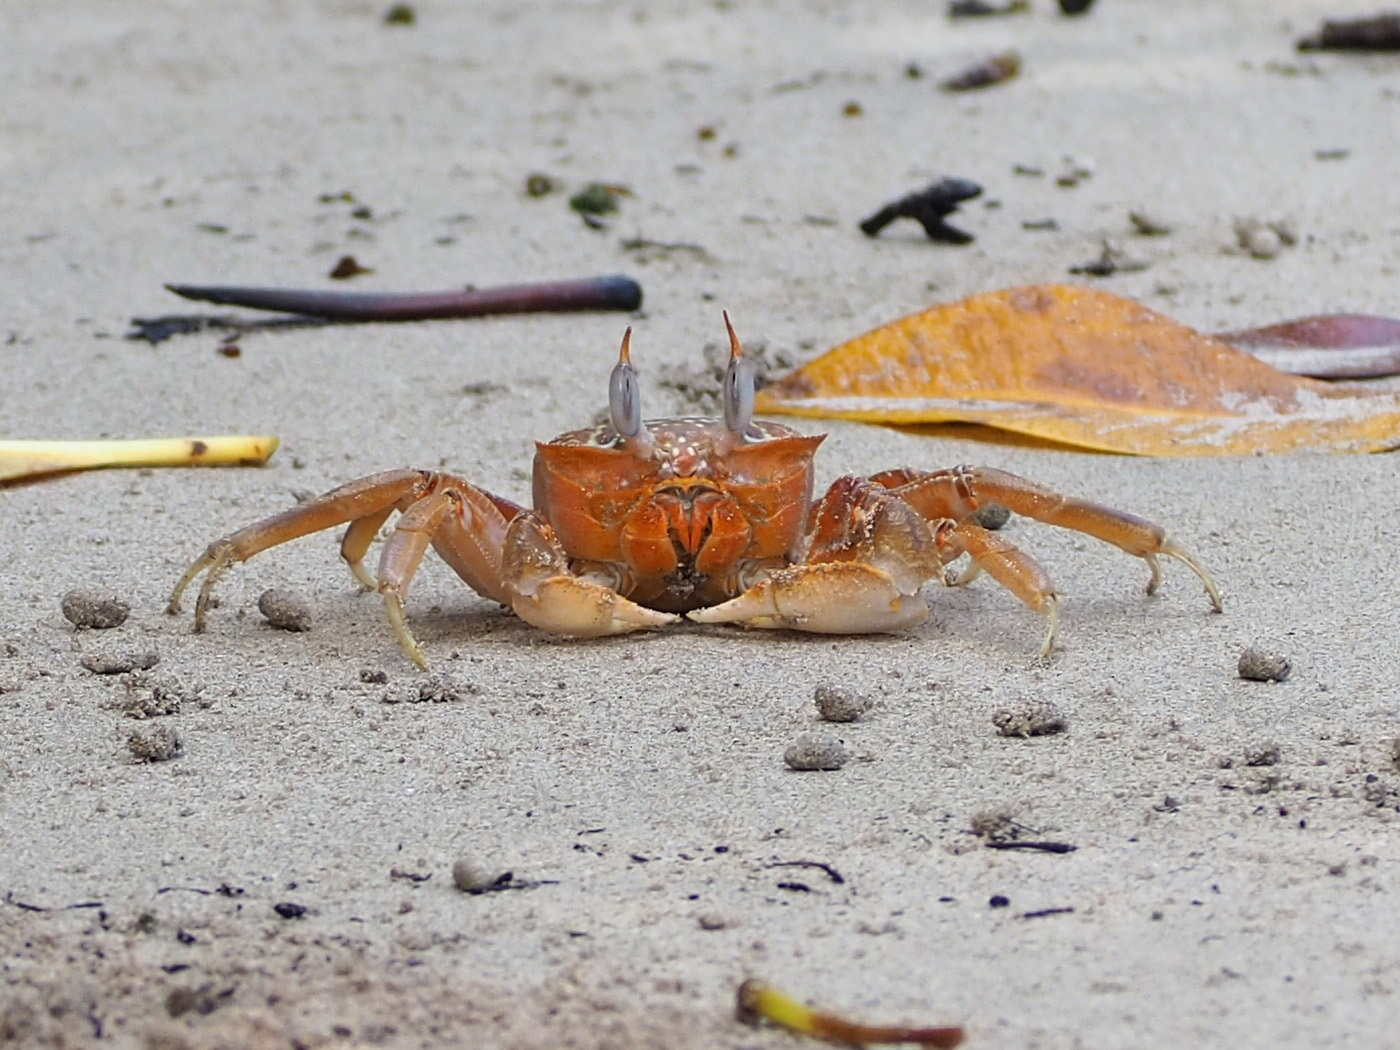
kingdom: Animalia
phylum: Arthropoda
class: Malacostraca
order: Decapoda
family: Ocypodidae
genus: Ocypode
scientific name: Ocypode gaudichaudii
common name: Pacific ghost crab
